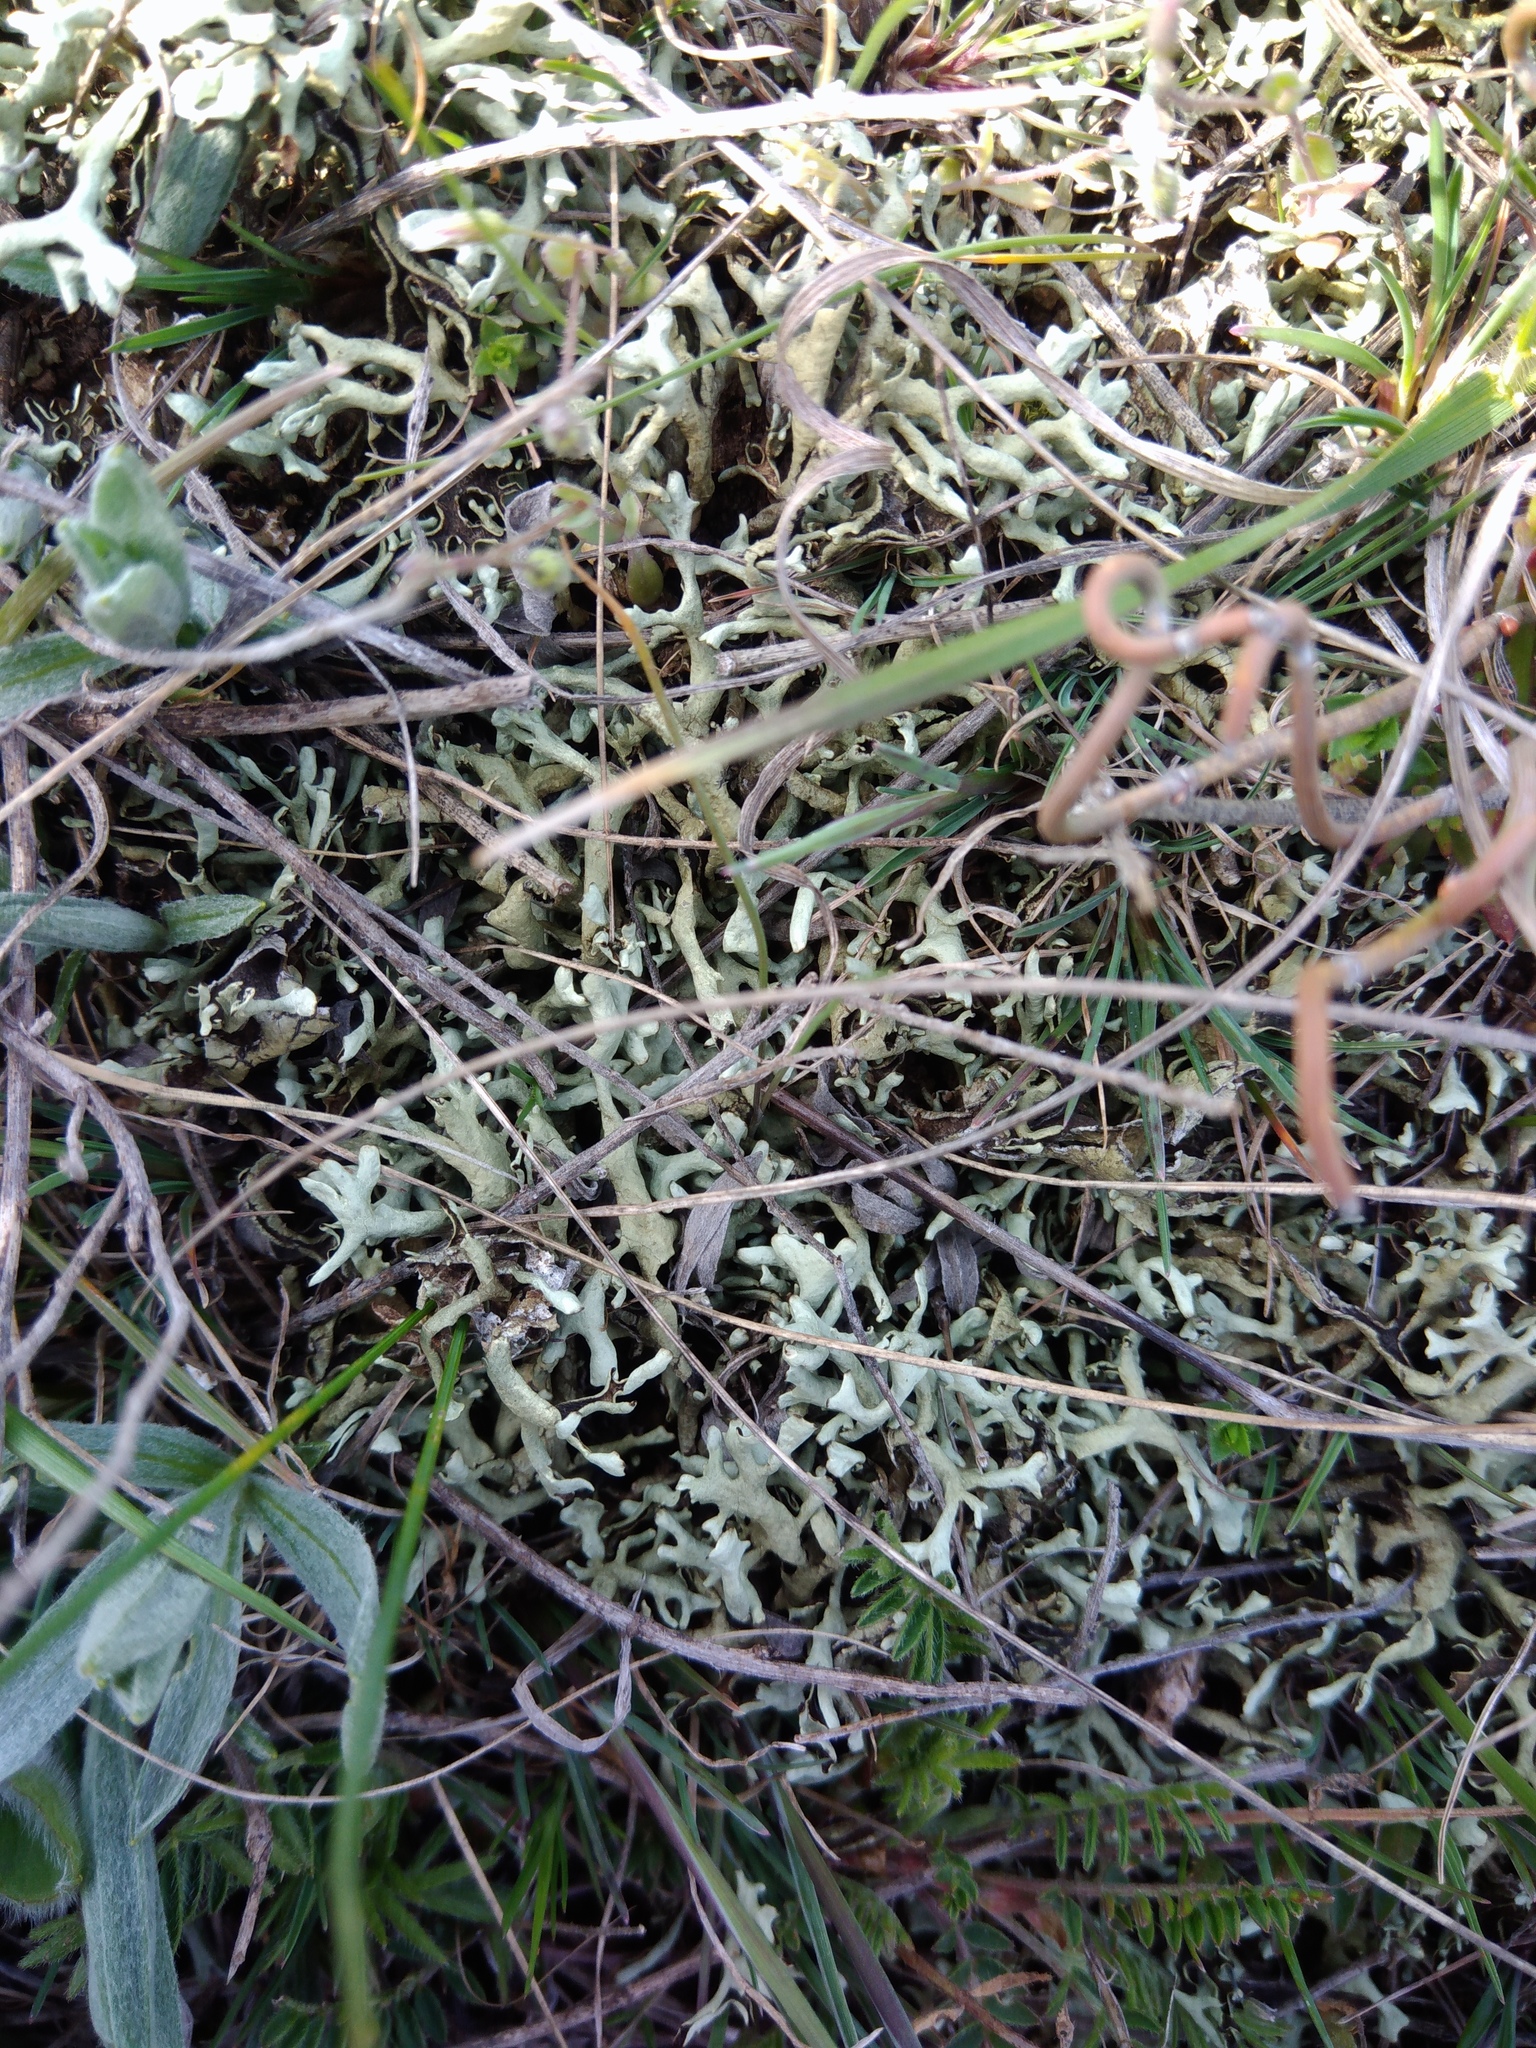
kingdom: Fungi
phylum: Ascomycota
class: Lecanoromycetes
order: Lecanorales
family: Parmeliaceae
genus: Xanthoparmelia
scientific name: Xanthoparmelia camtschadalis
